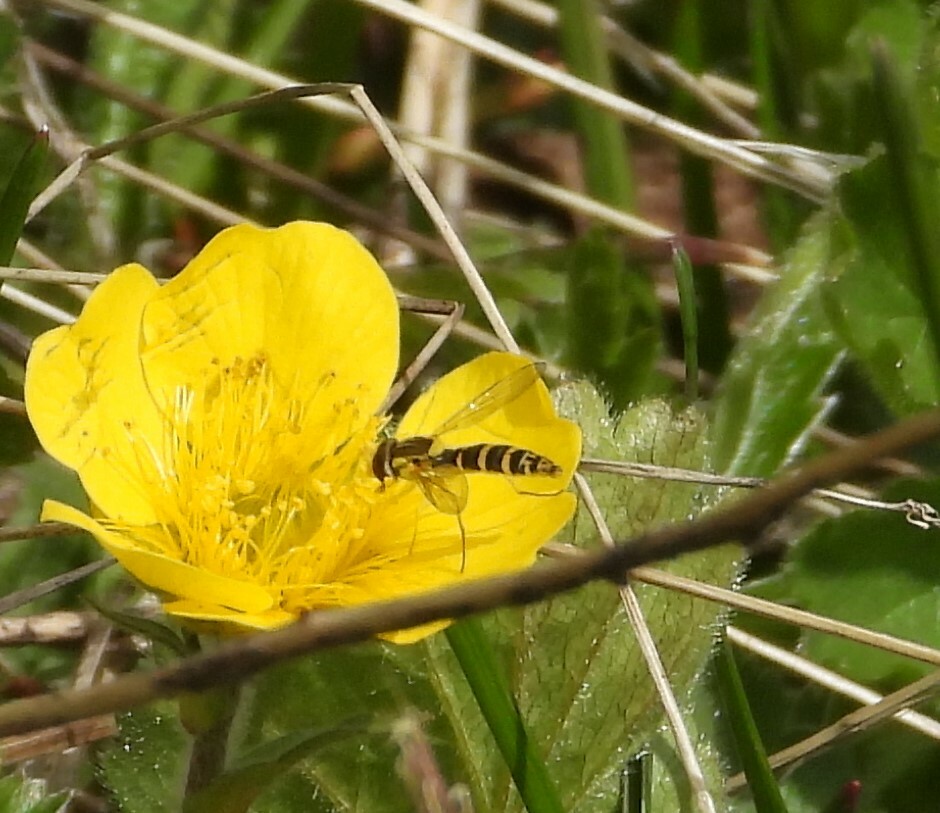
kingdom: Animalia
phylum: Arthropoda
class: Insecta
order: Diptera
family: Syrphidae
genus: Sphaerophoria
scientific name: Sphaerophoria
